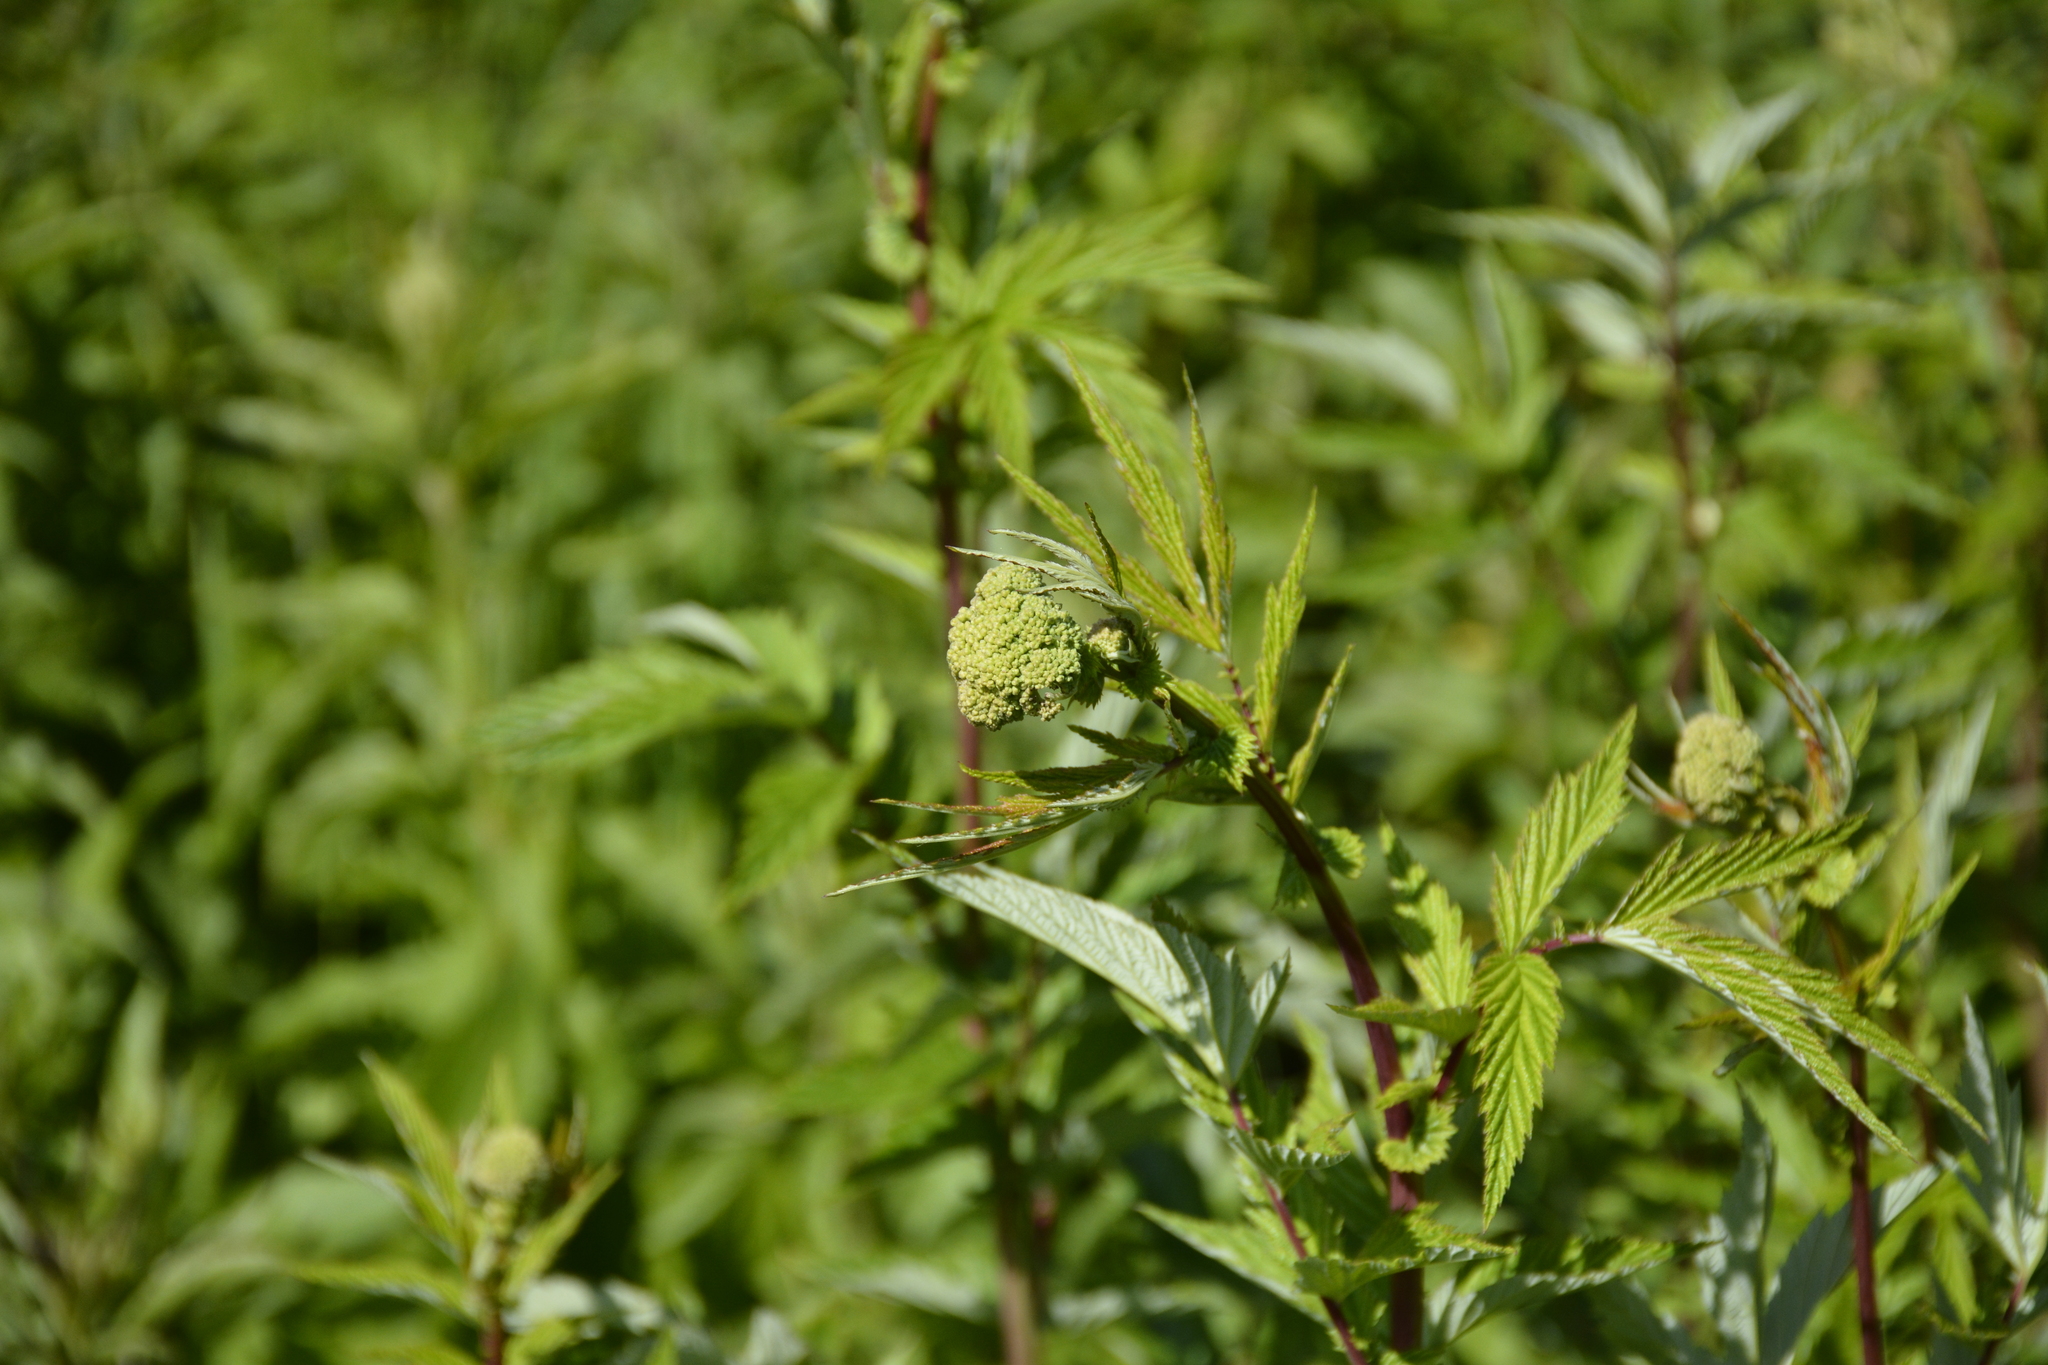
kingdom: Plantae
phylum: Tracheophyta
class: Magnoliopsida
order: Rosales
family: Rosaceae
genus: Filipendula
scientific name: Filipendula ulmaria
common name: Meadowsweet
